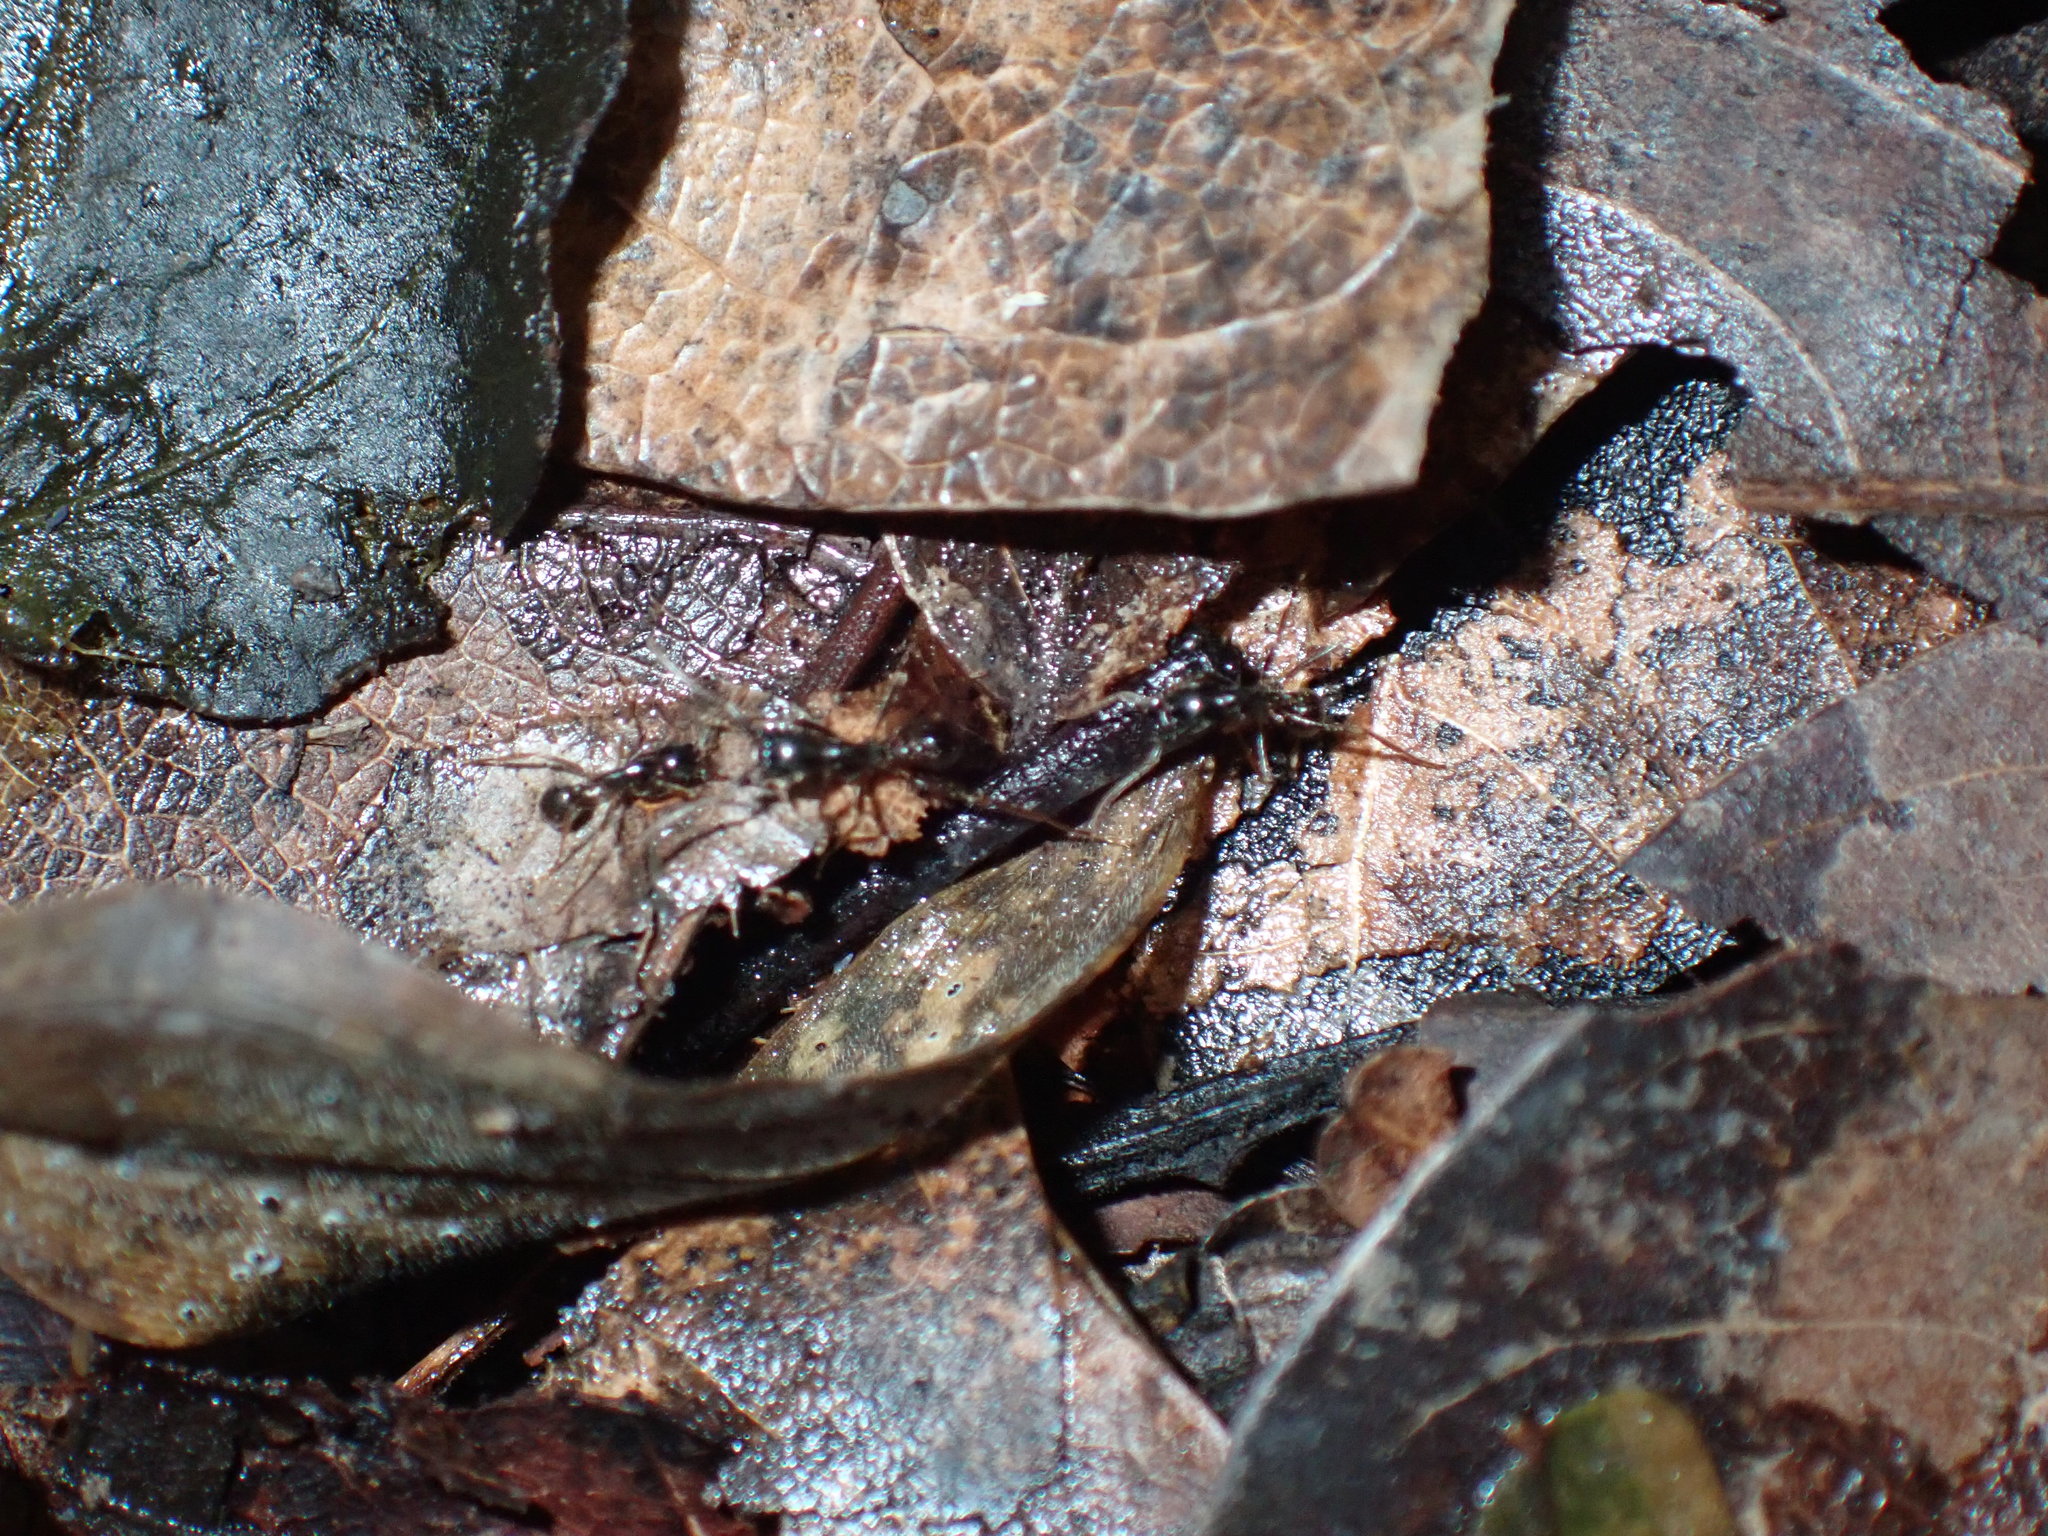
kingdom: Animalia
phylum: Arthropoda
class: Insecta
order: Hymenoptera
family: Formicidae
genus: Labidus
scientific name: Labidus praedator
